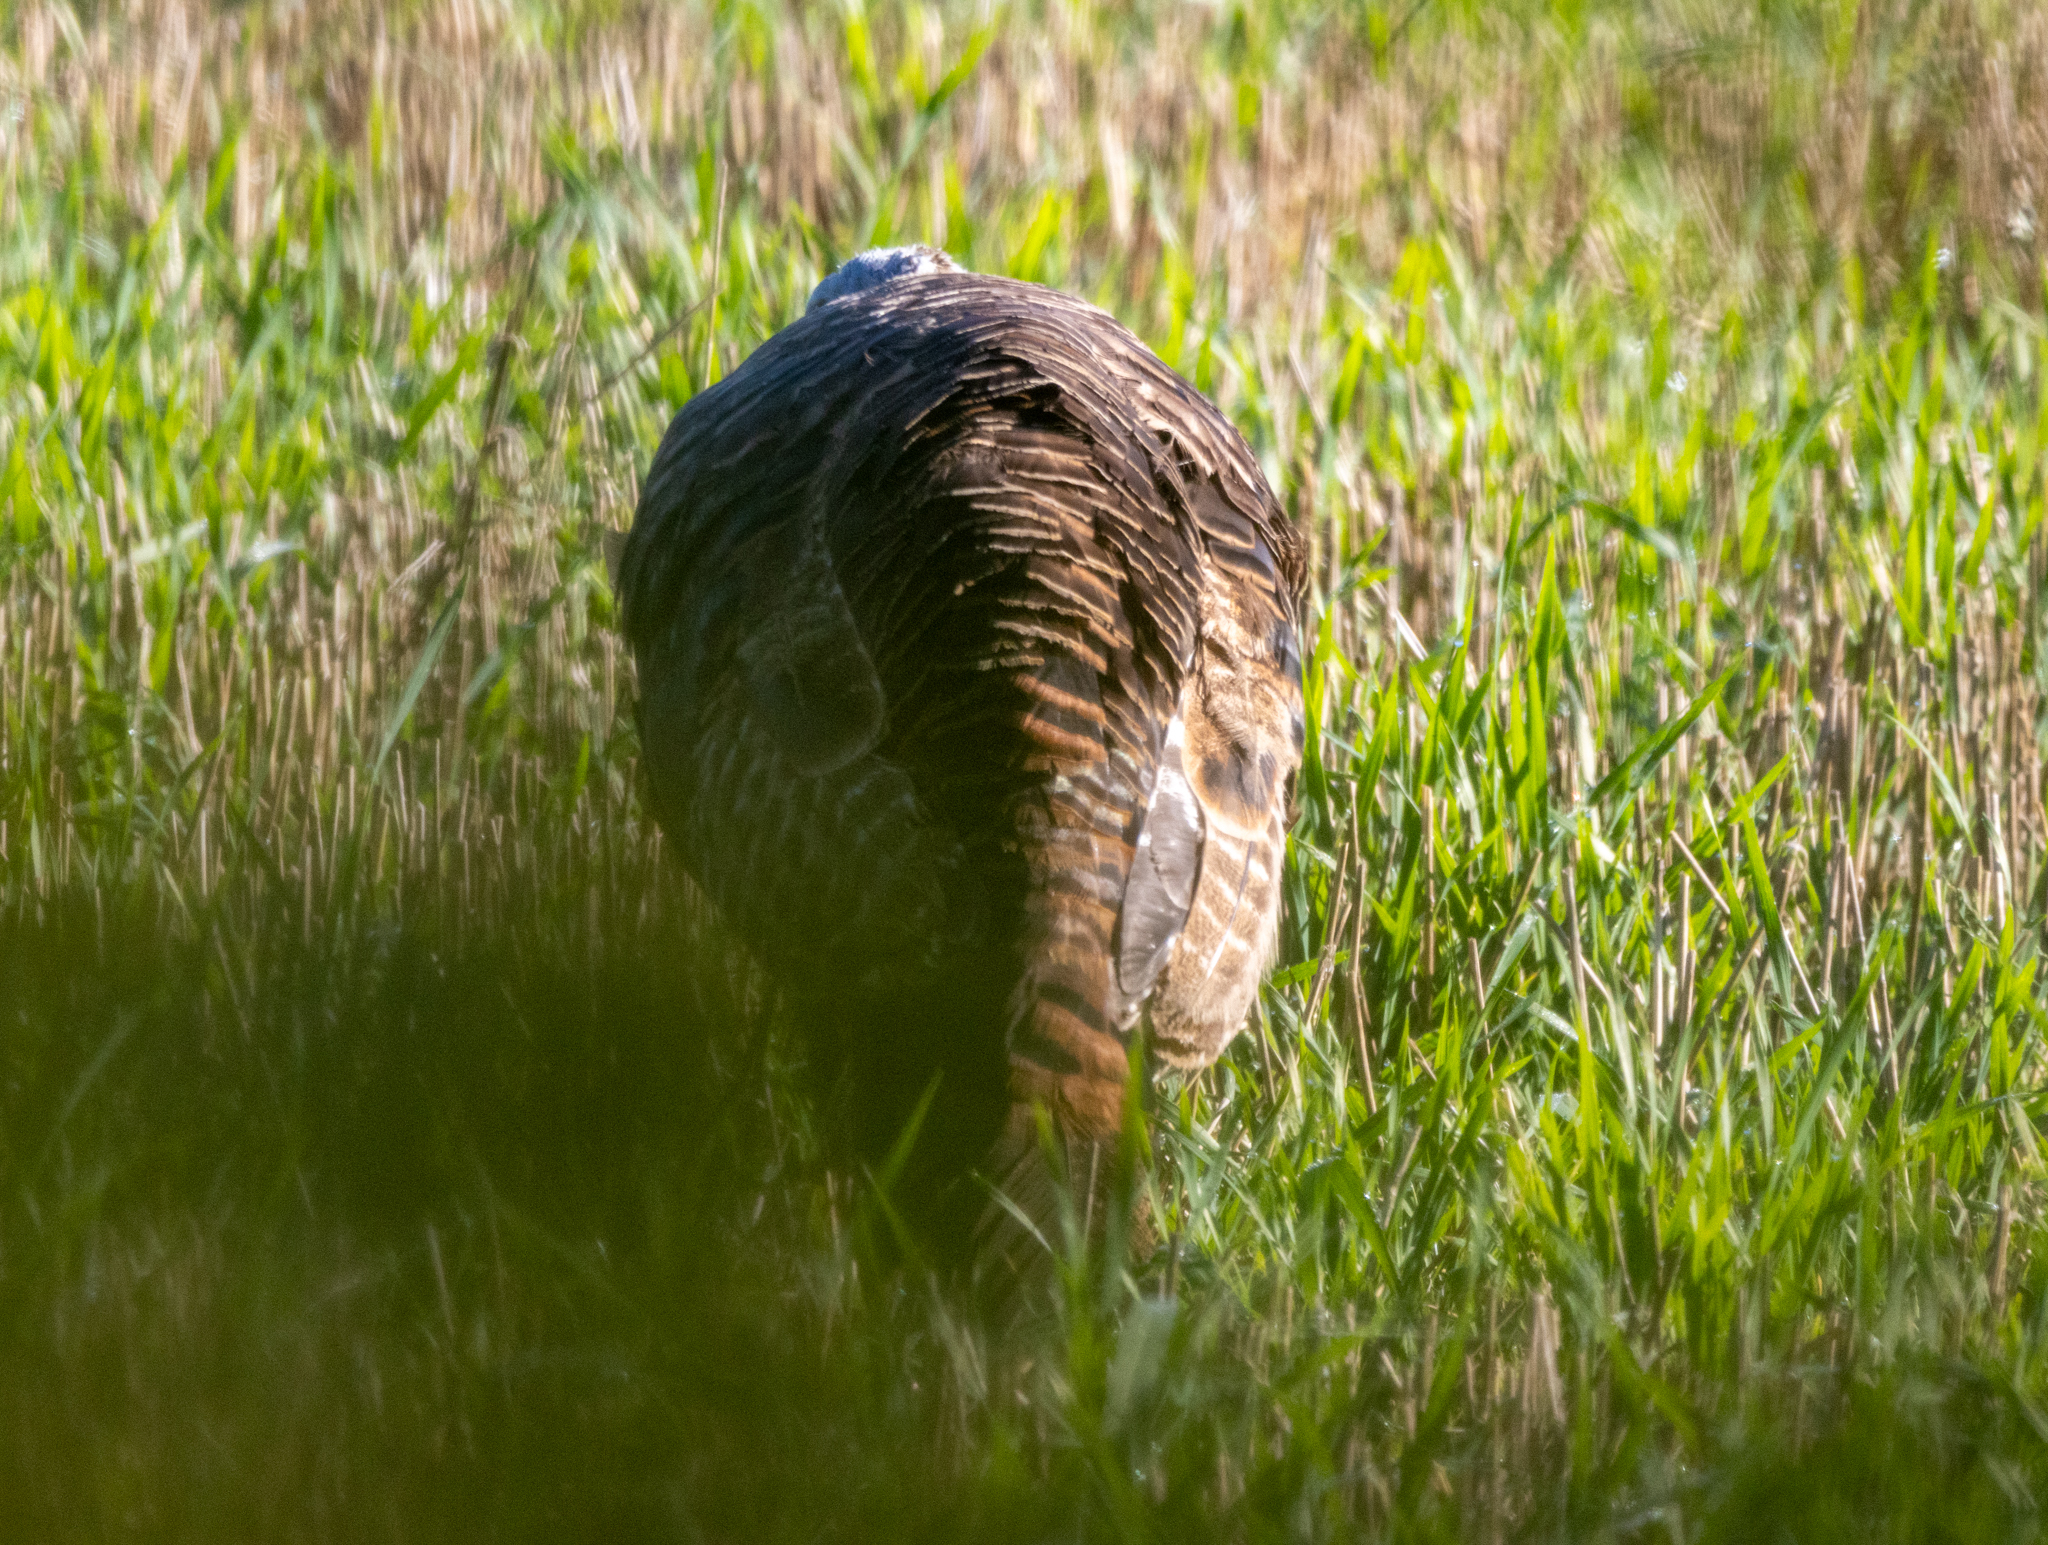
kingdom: Animalia
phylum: Chordata
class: Aves
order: Galliformes
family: Phasianidae
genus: Meleagris
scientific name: Meleagris gallopavo
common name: Wild turkey
